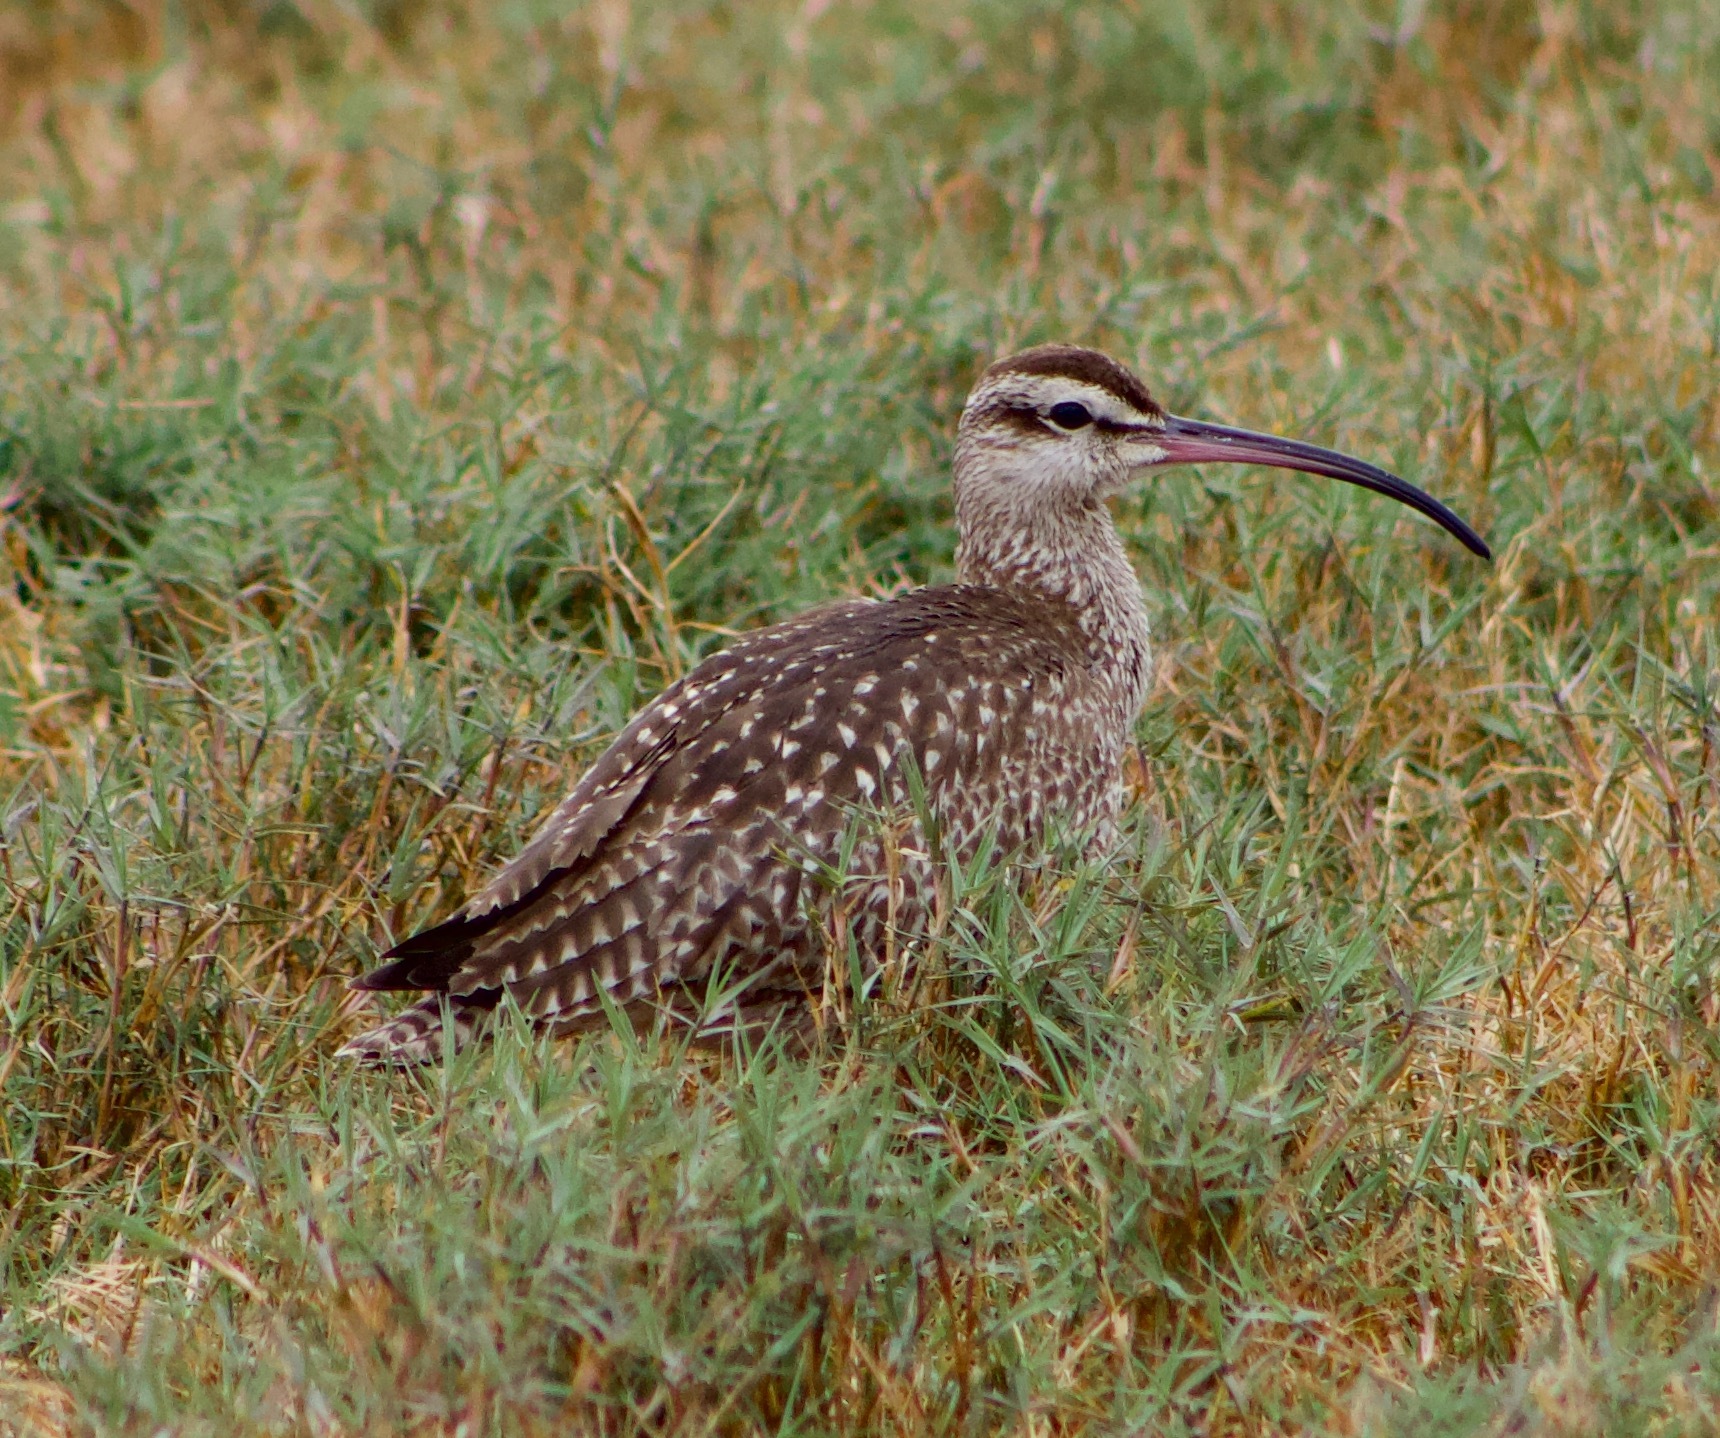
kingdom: Animalia
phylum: Chordata
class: Aves
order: Charadriiformes
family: Scolopacidae
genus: Numenius
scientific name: Numenius phaeopus
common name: Whimbrel
